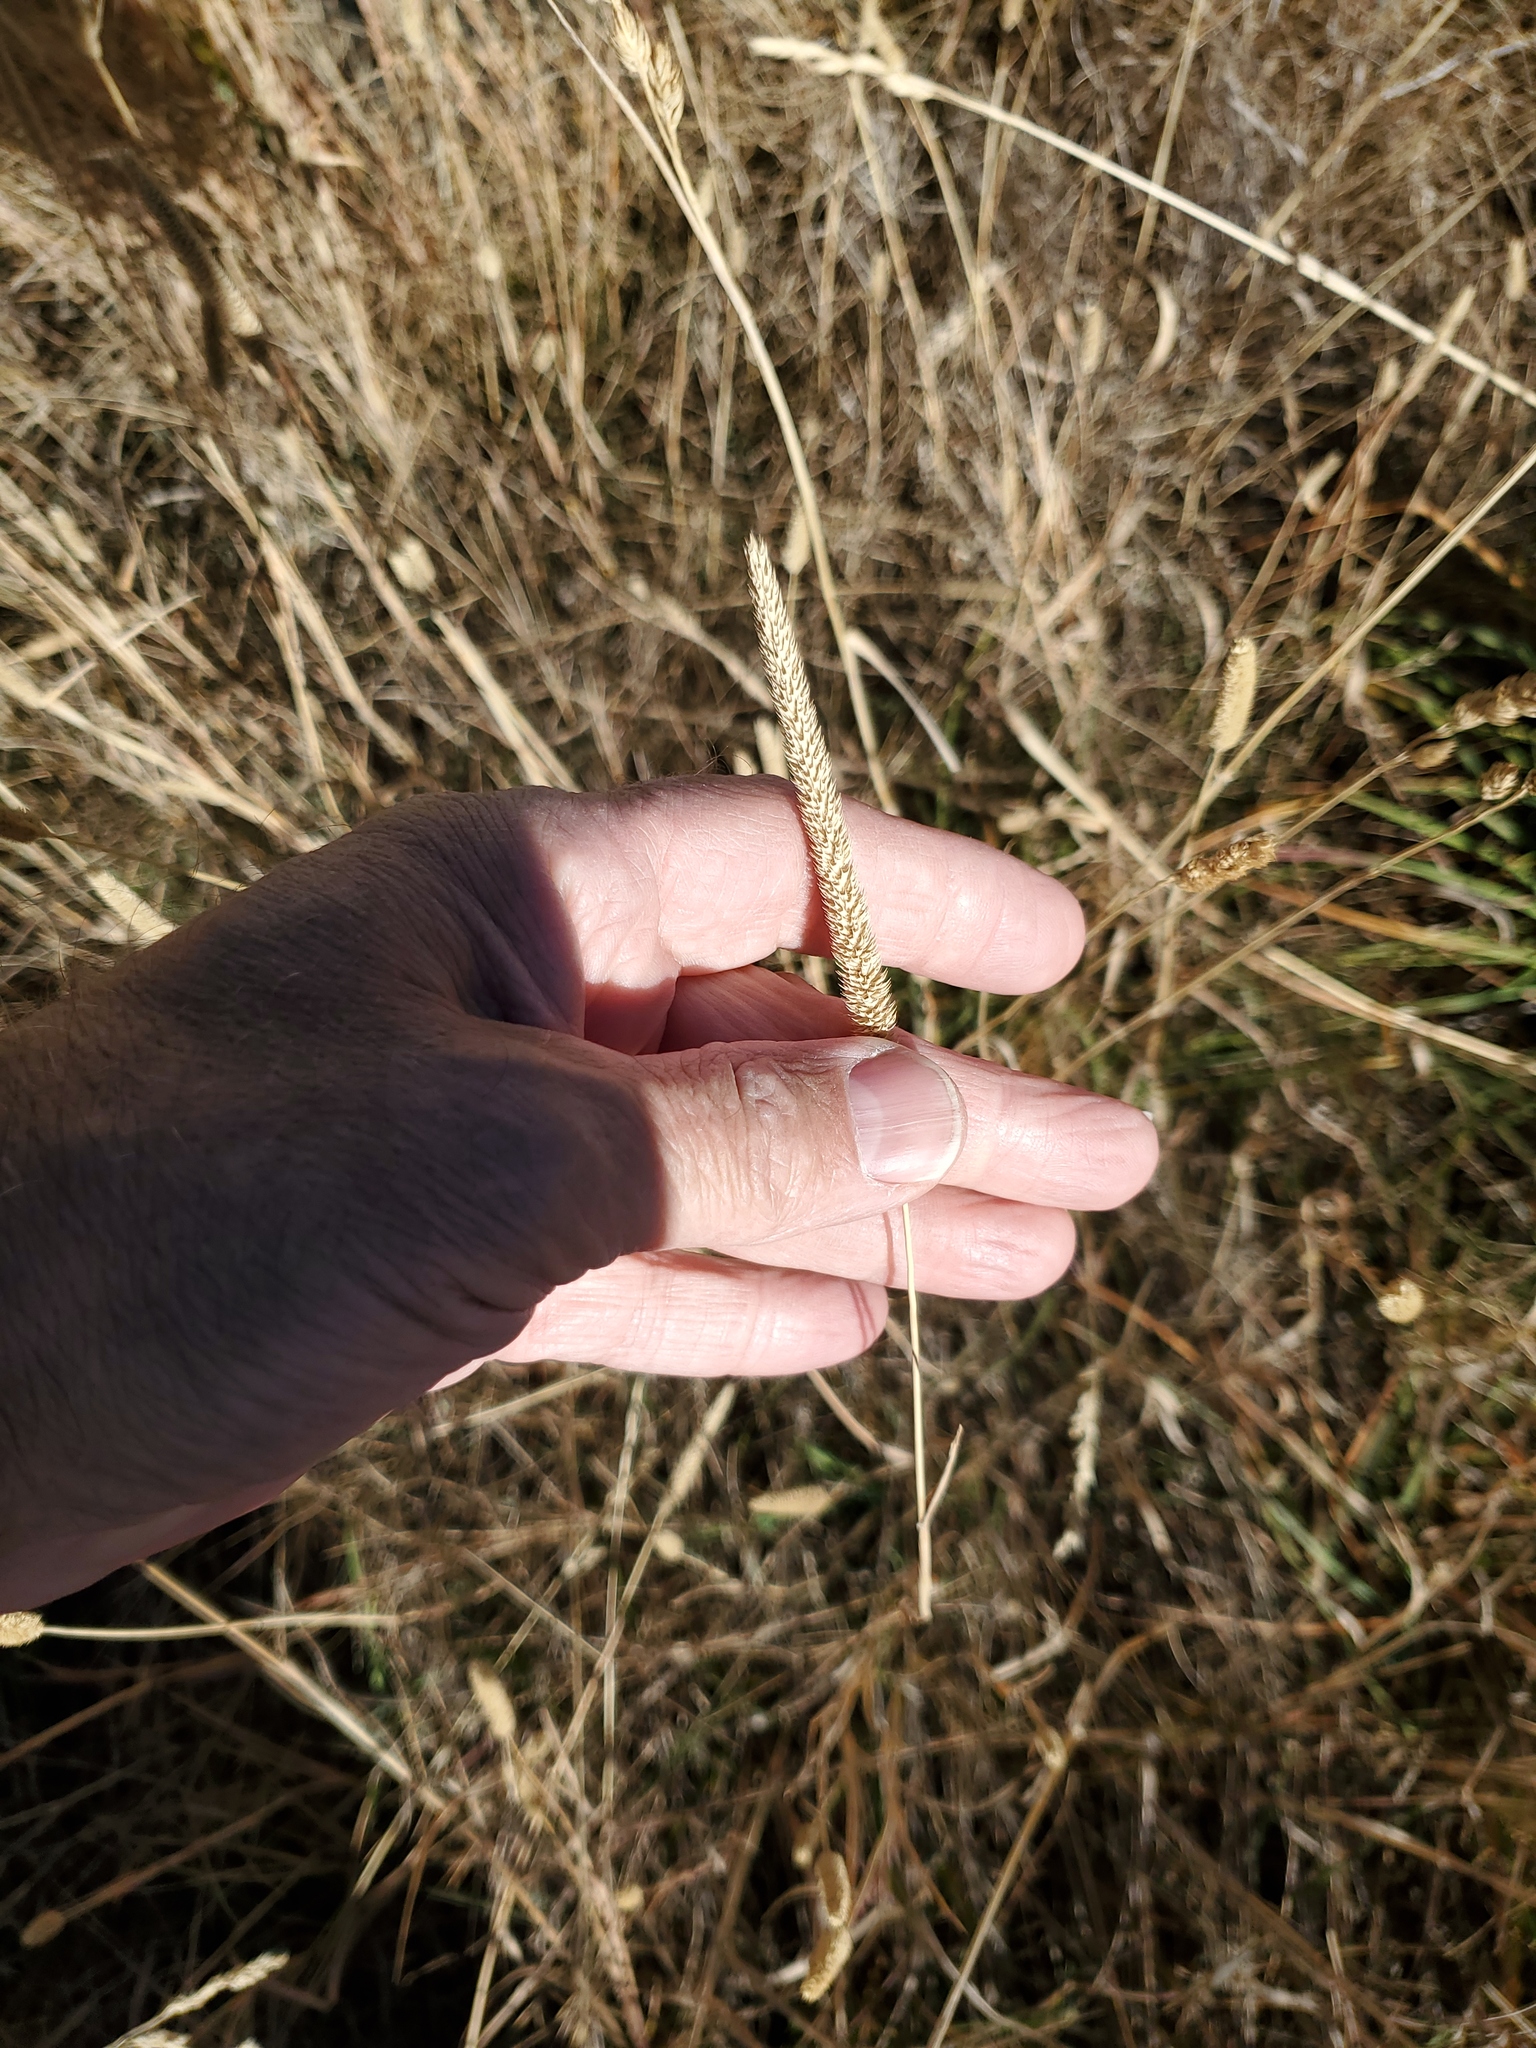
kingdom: Plantae
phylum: Tracheophyta
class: Liliopsida
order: Poales
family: Poaceae
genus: Phleum
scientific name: Phleum pratense
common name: Timothy grass
